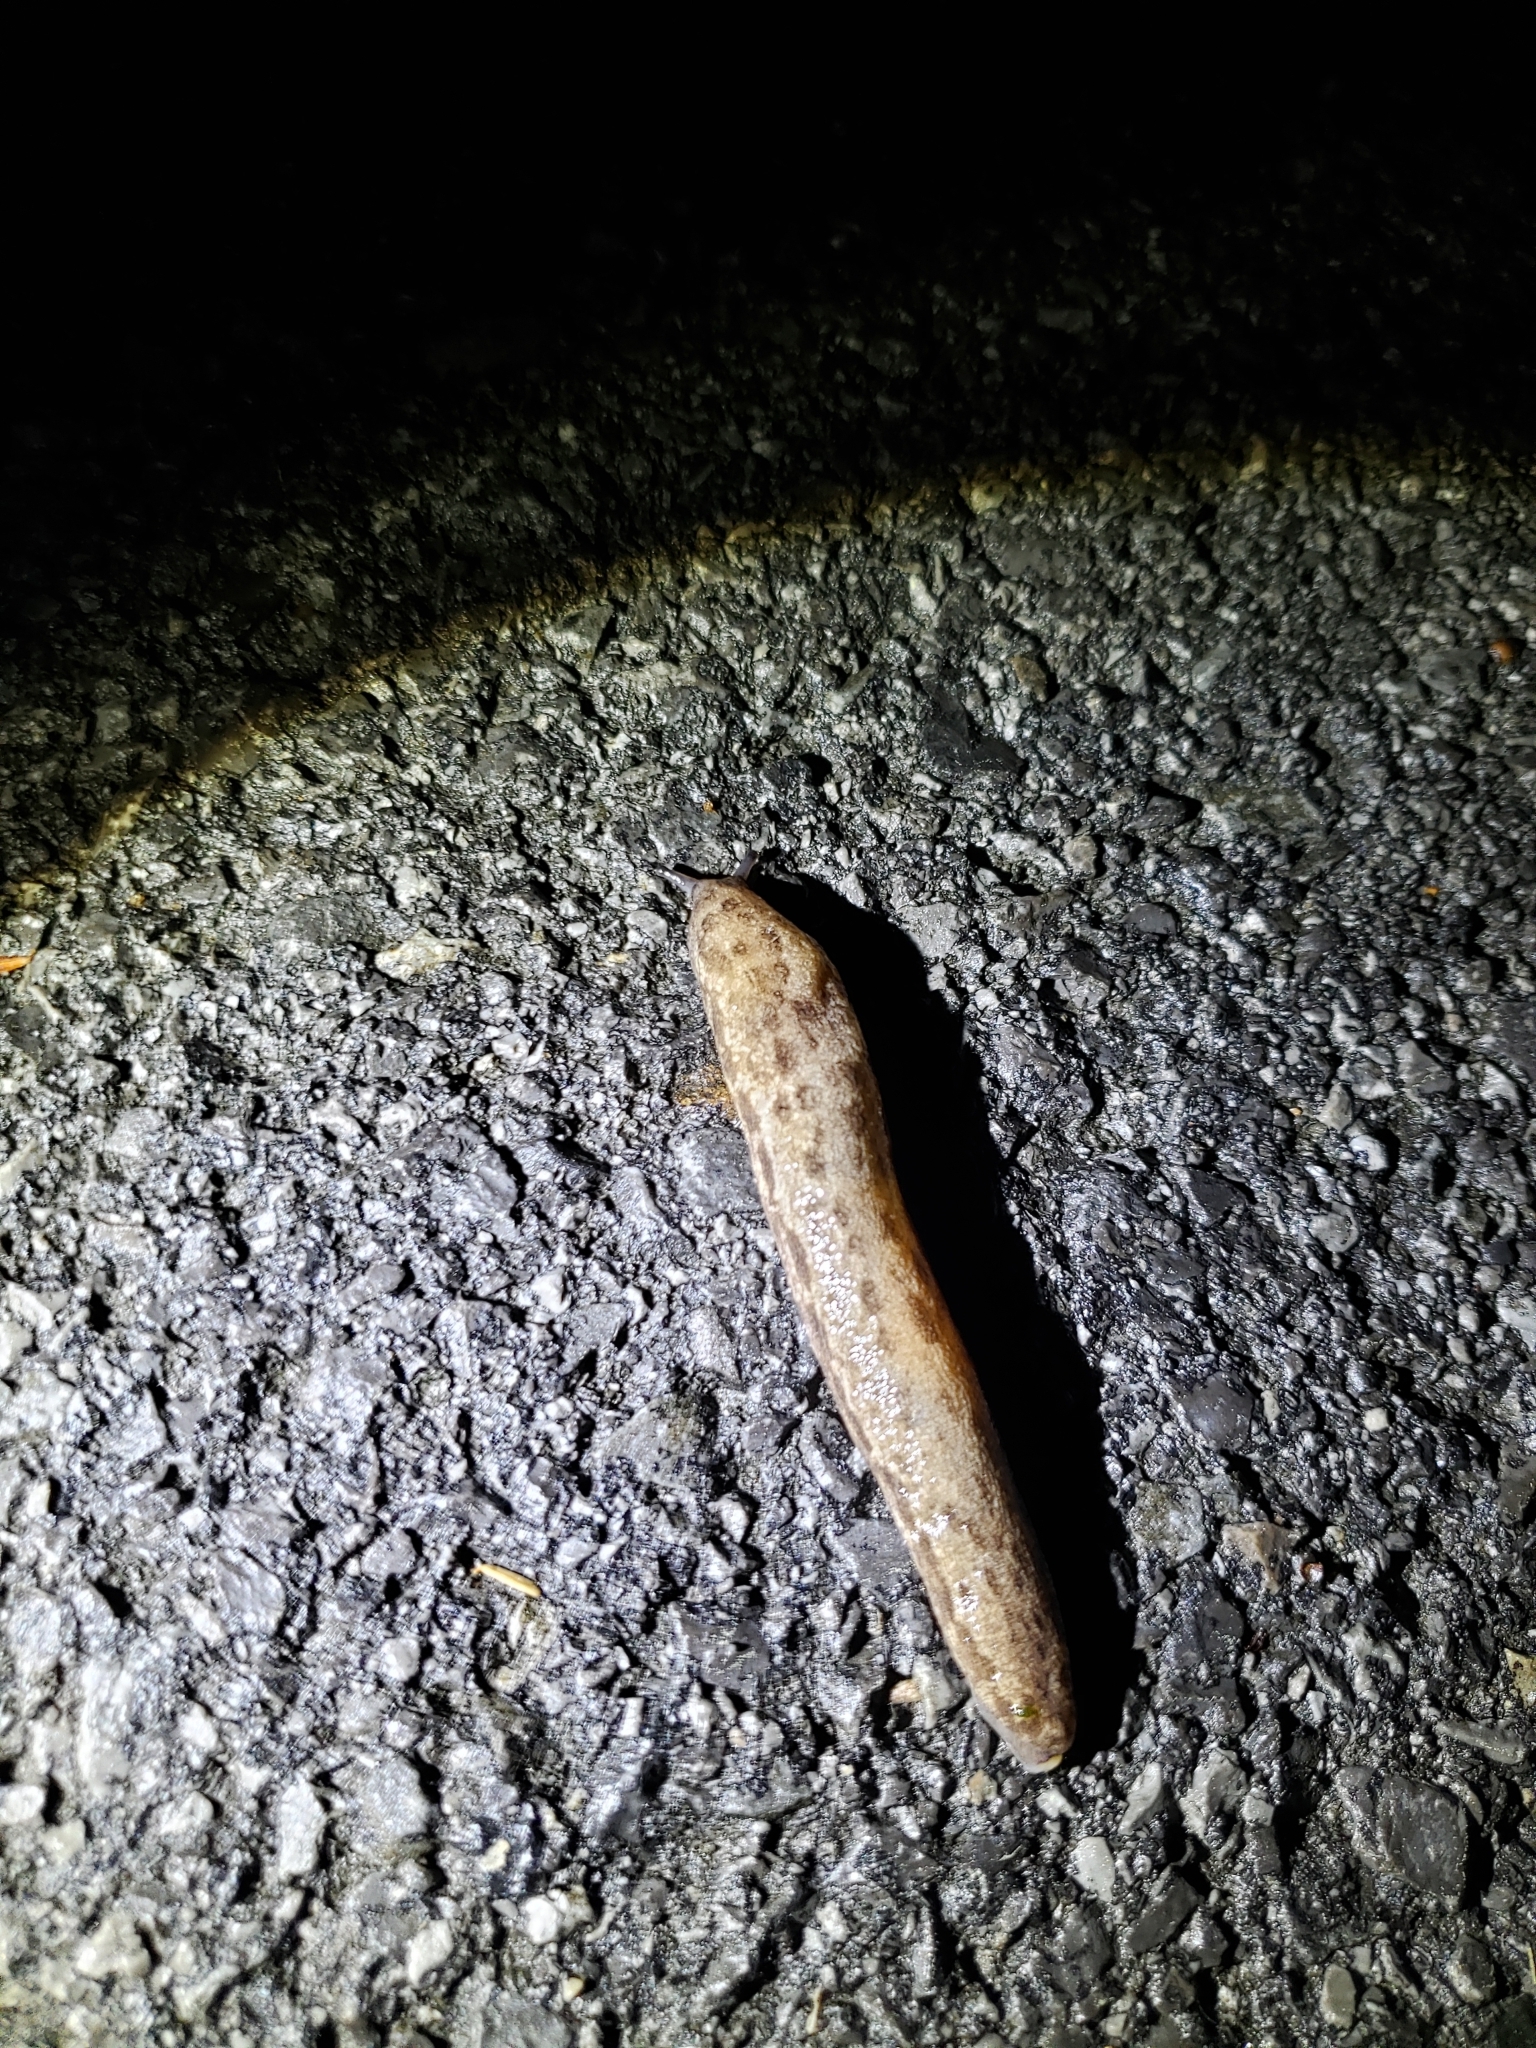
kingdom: Animalia
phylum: Mollusca
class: Gastropoda
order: Stylommatophora
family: Philomycidae
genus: Megapallifera
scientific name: Megapallifera mutabilis
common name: Changeable mantleslug
